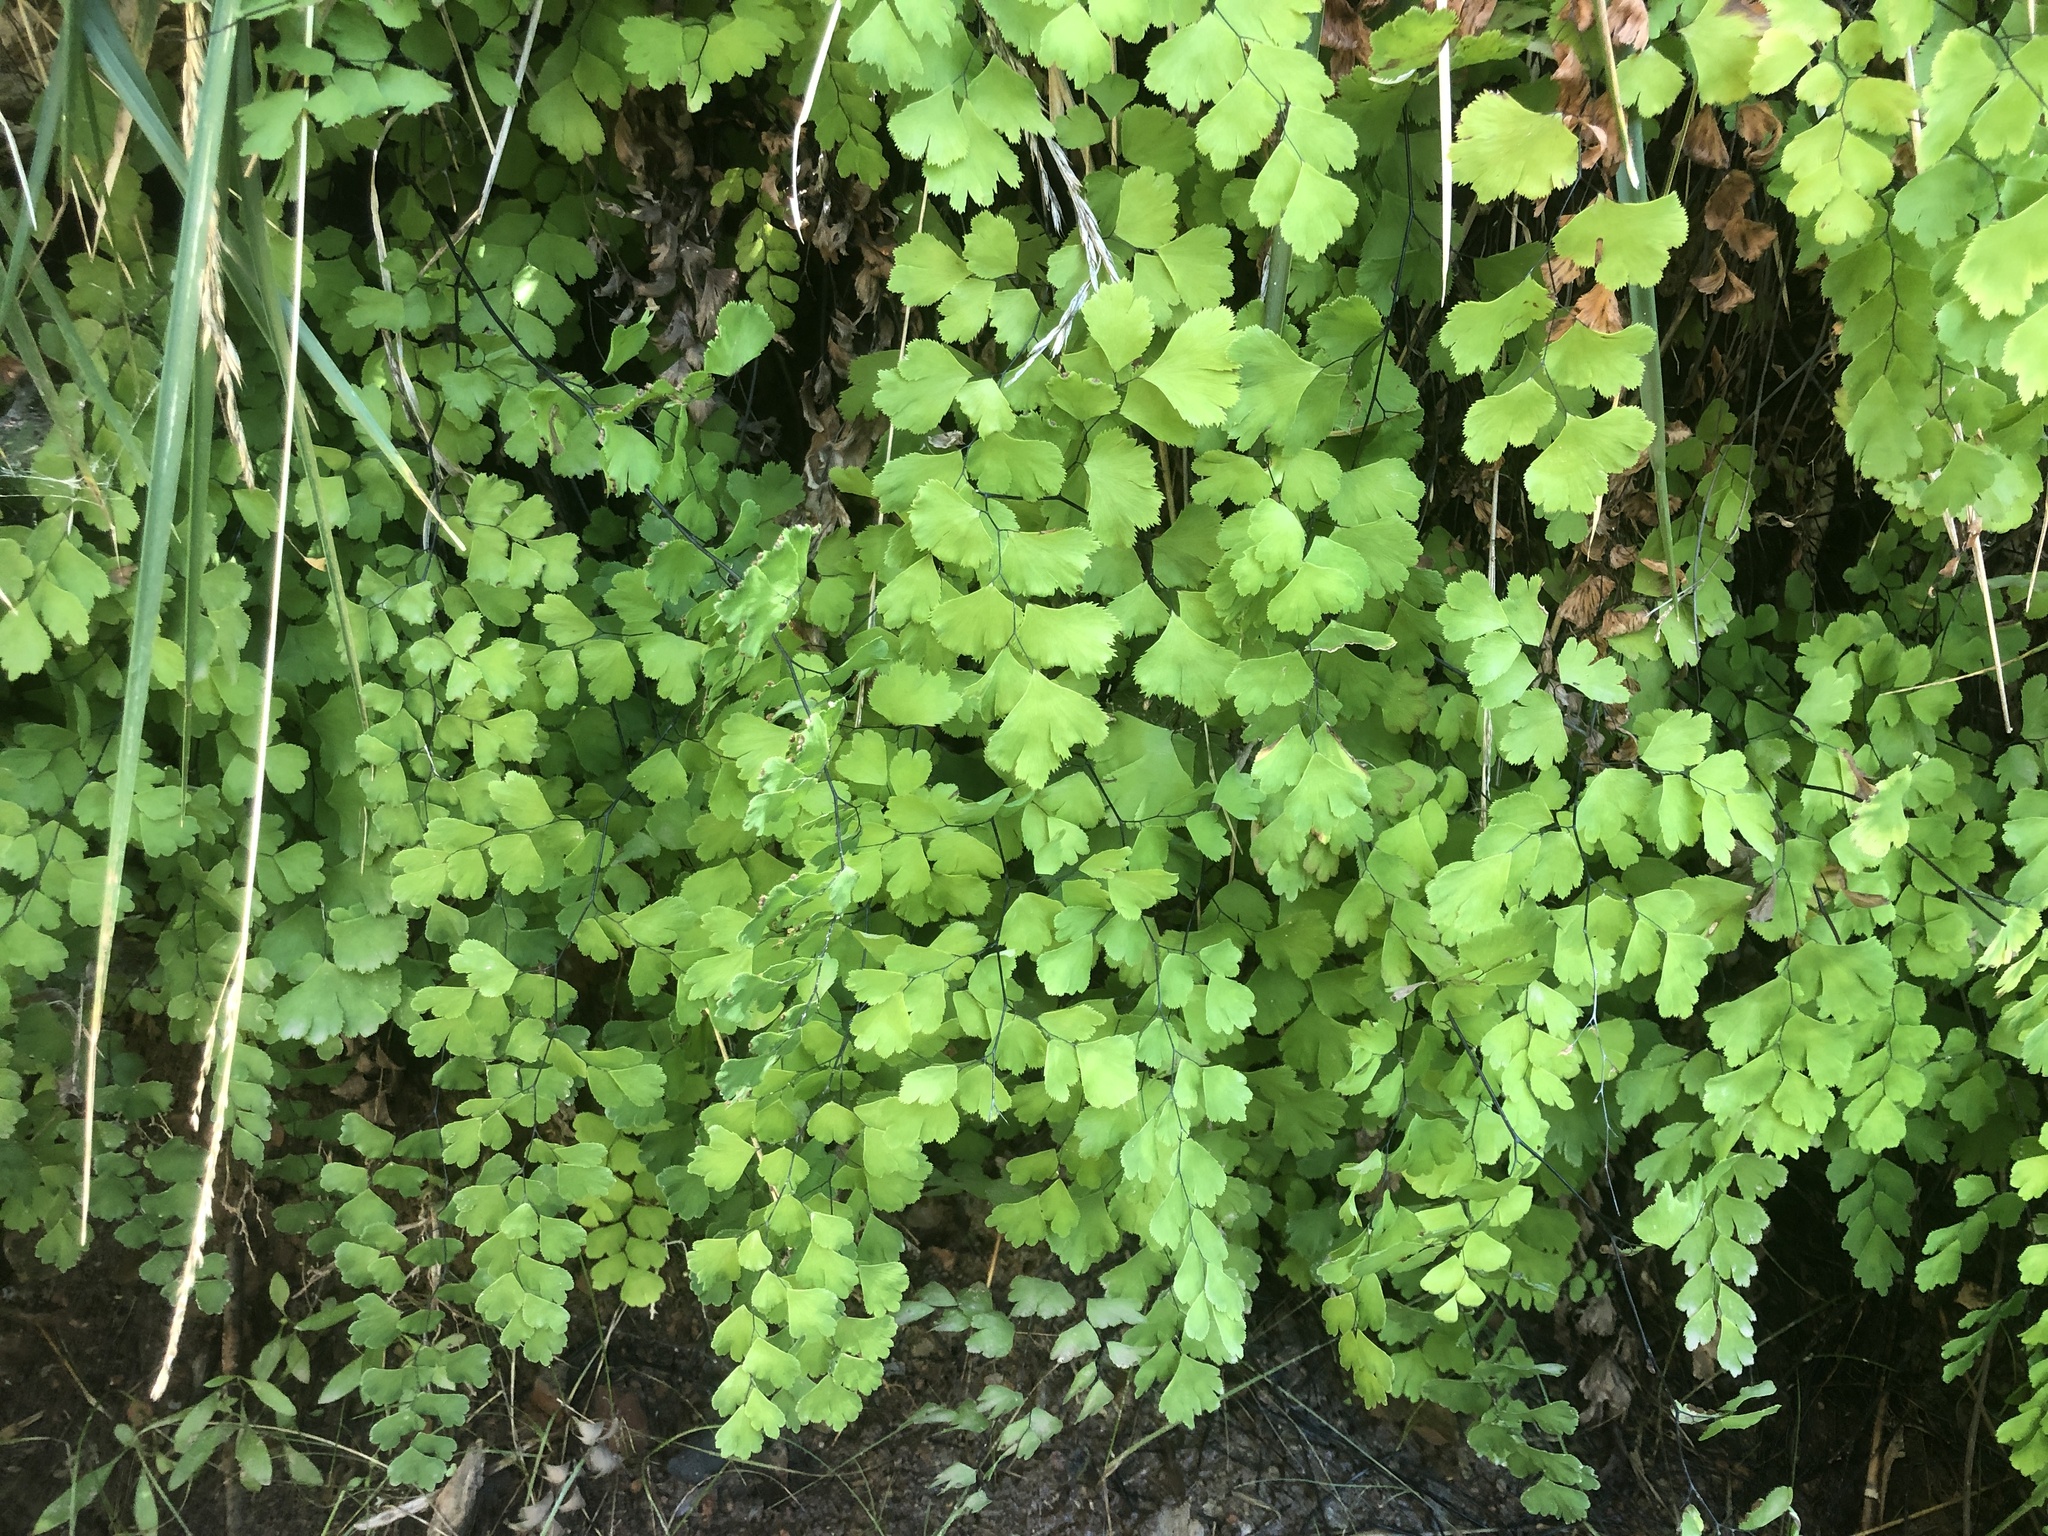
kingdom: Plantae
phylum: Tracheophyta
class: Polypodiopsida
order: Polypodiales
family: Pteridaceae
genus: Adiantum
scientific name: Adiantum capillus-veneris
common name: Maidenhair fern
